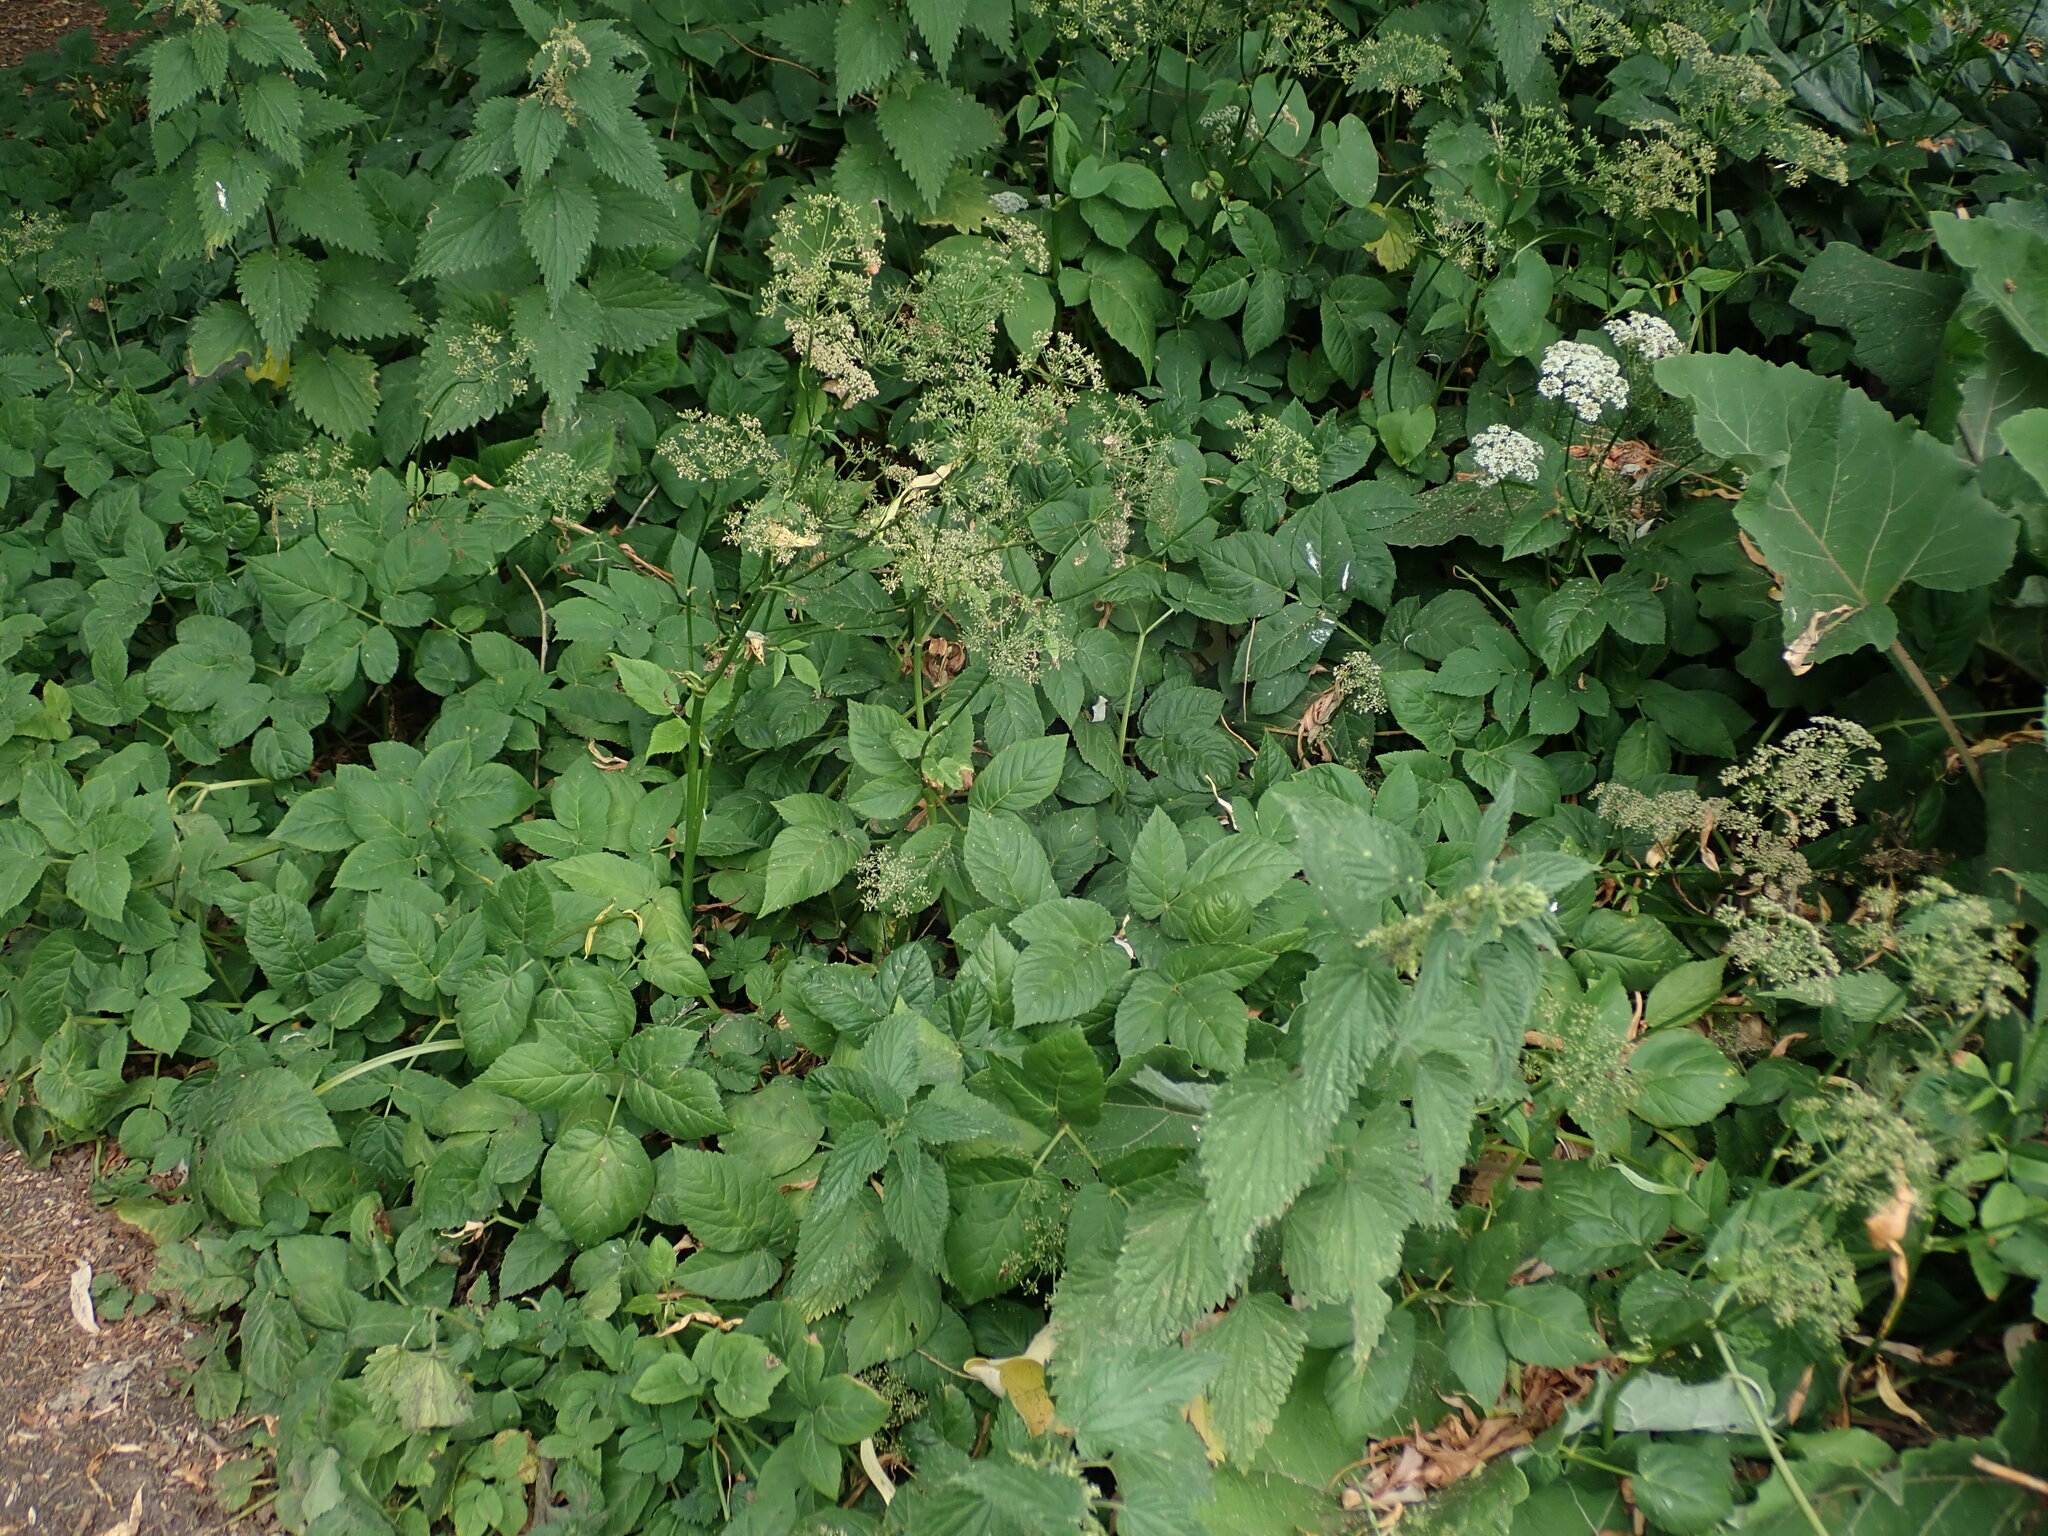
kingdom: Plantae
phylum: Tracheophyta
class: Magnoliopsida
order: Apiales
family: Apiaceae
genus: Aegopodium
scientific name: Aegopodium podagraria
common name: Ground-elder
